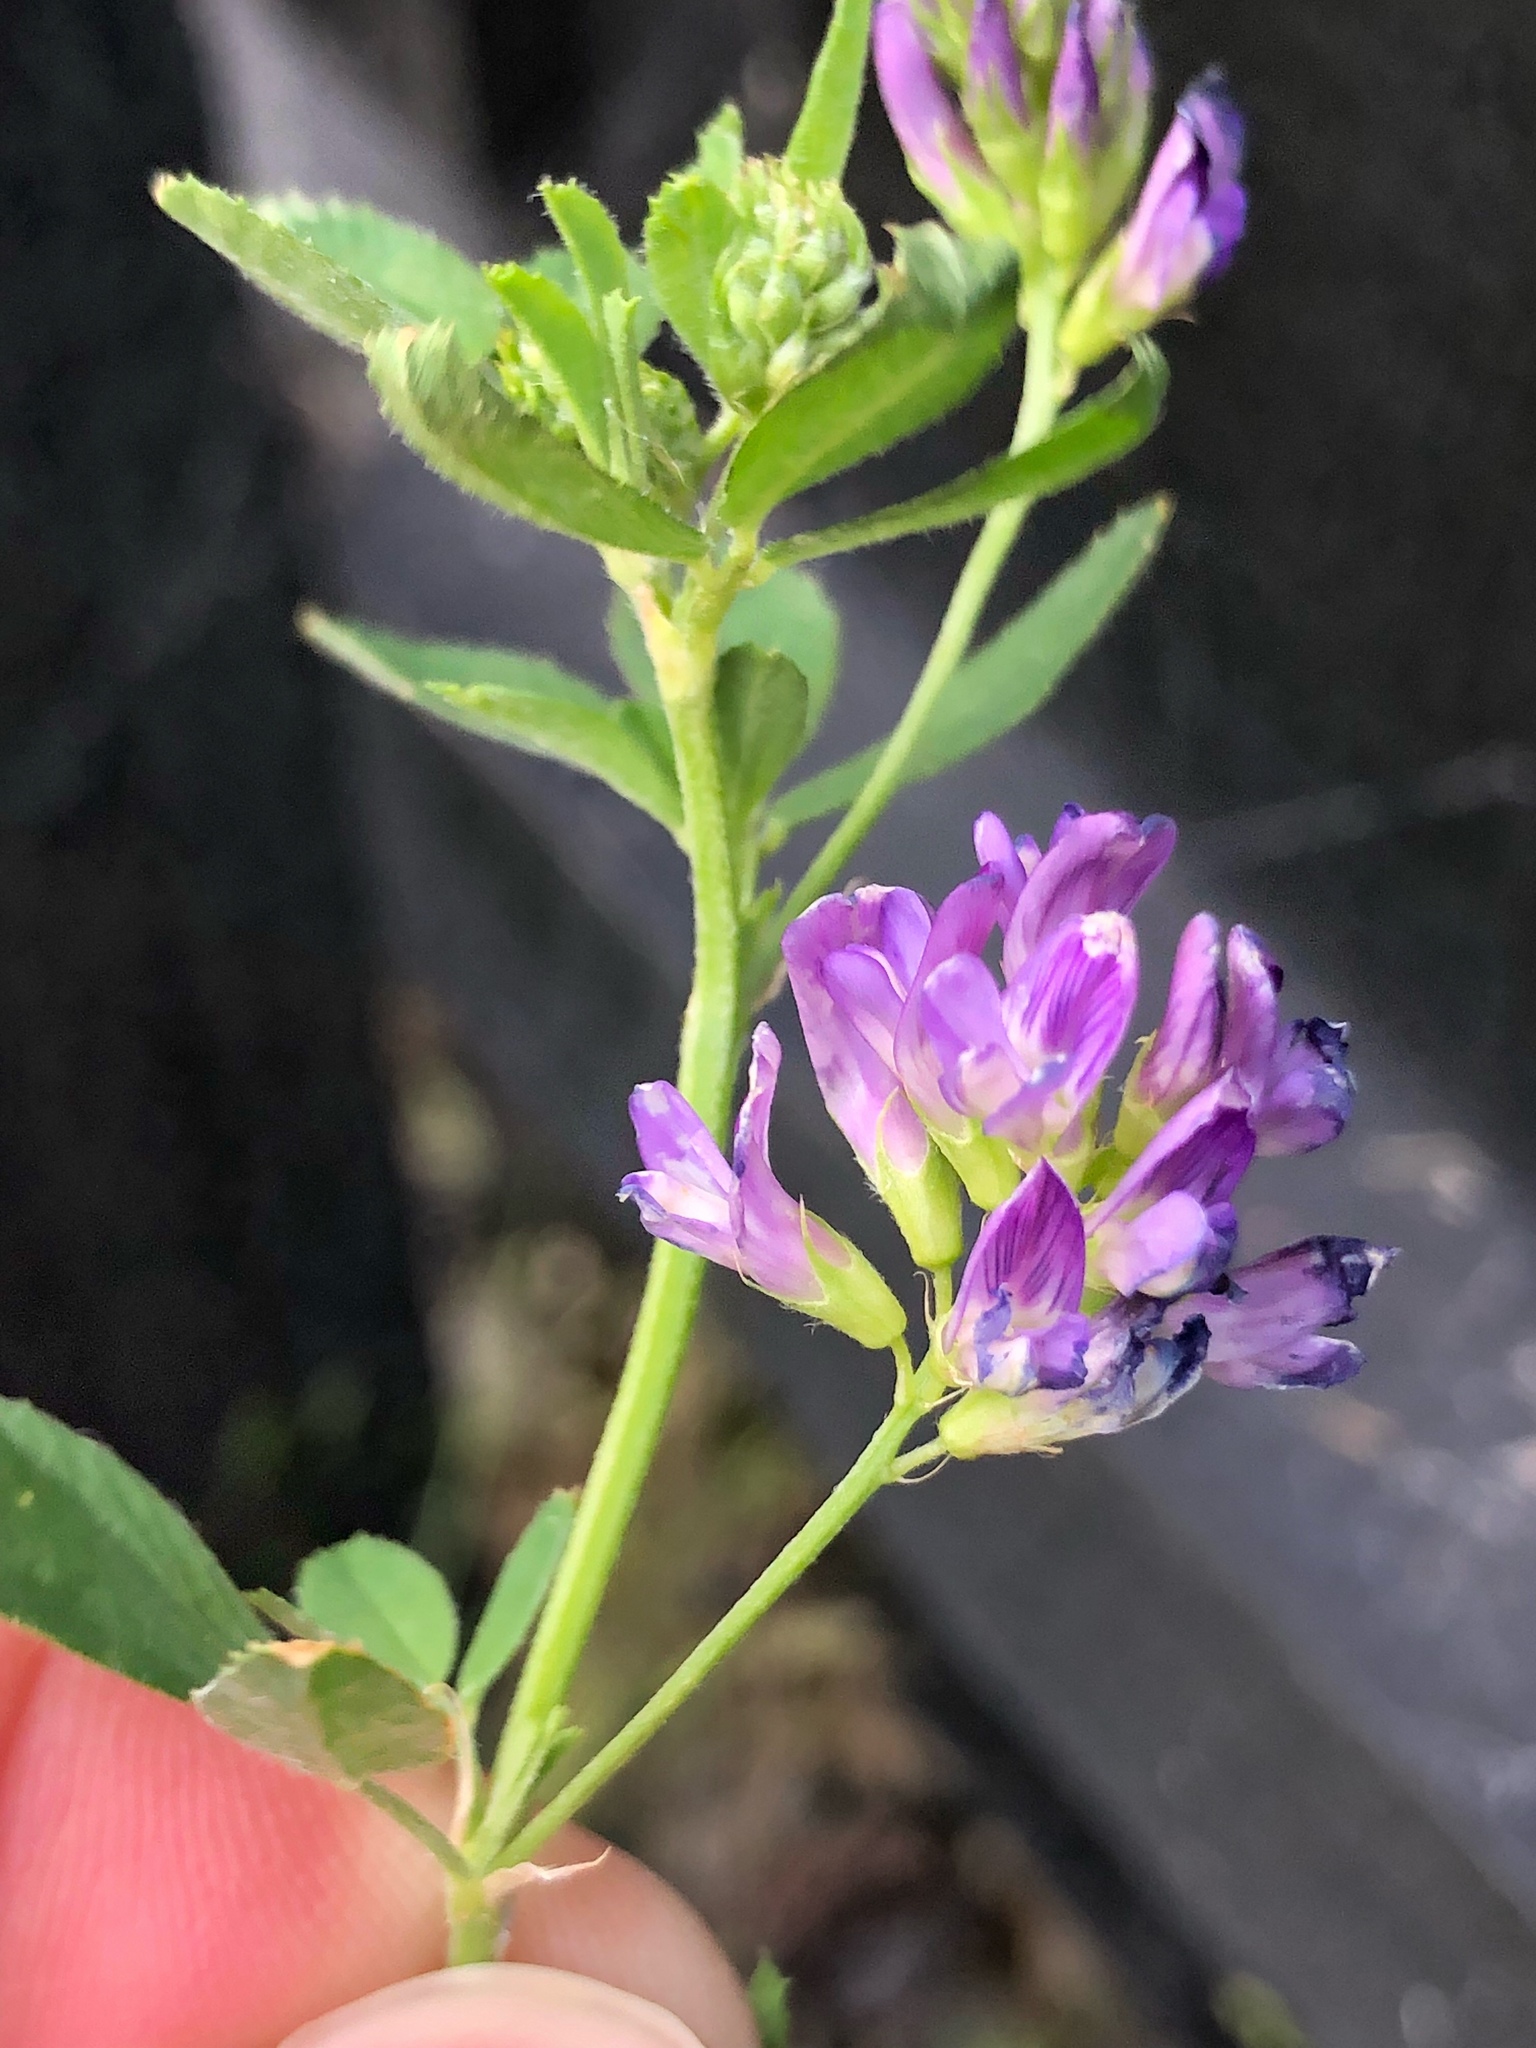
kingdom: Plantae
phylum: Tracheophyta
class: Magnoliopsida
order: Fabales
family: Fabaceae
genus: Medicago
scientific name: Medicago sativa
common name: Alfalfa
